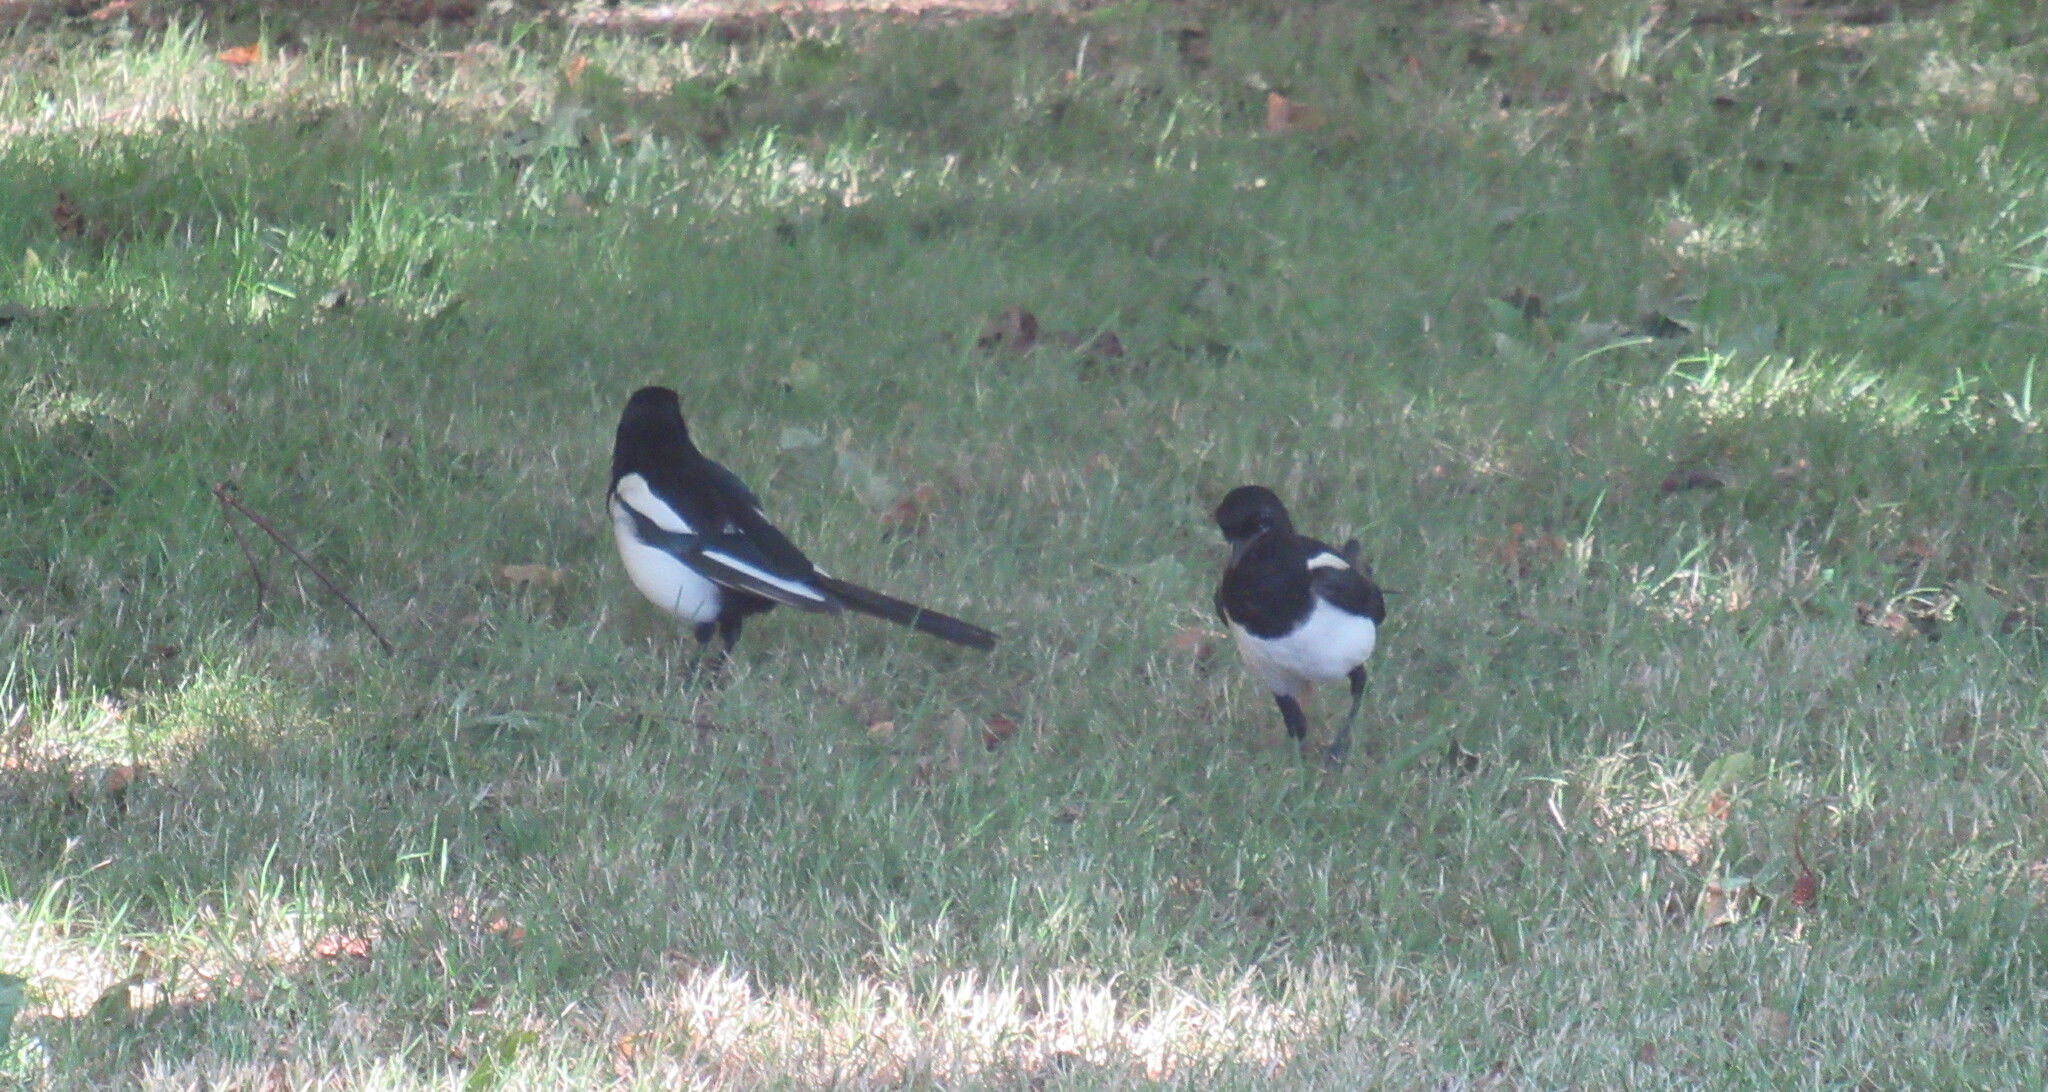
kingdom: Animalia
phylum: Chordata
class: Aves
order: Passeriformes
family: Corvidae
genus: Pica
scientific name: Pica pica
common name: Eurasian magpie
